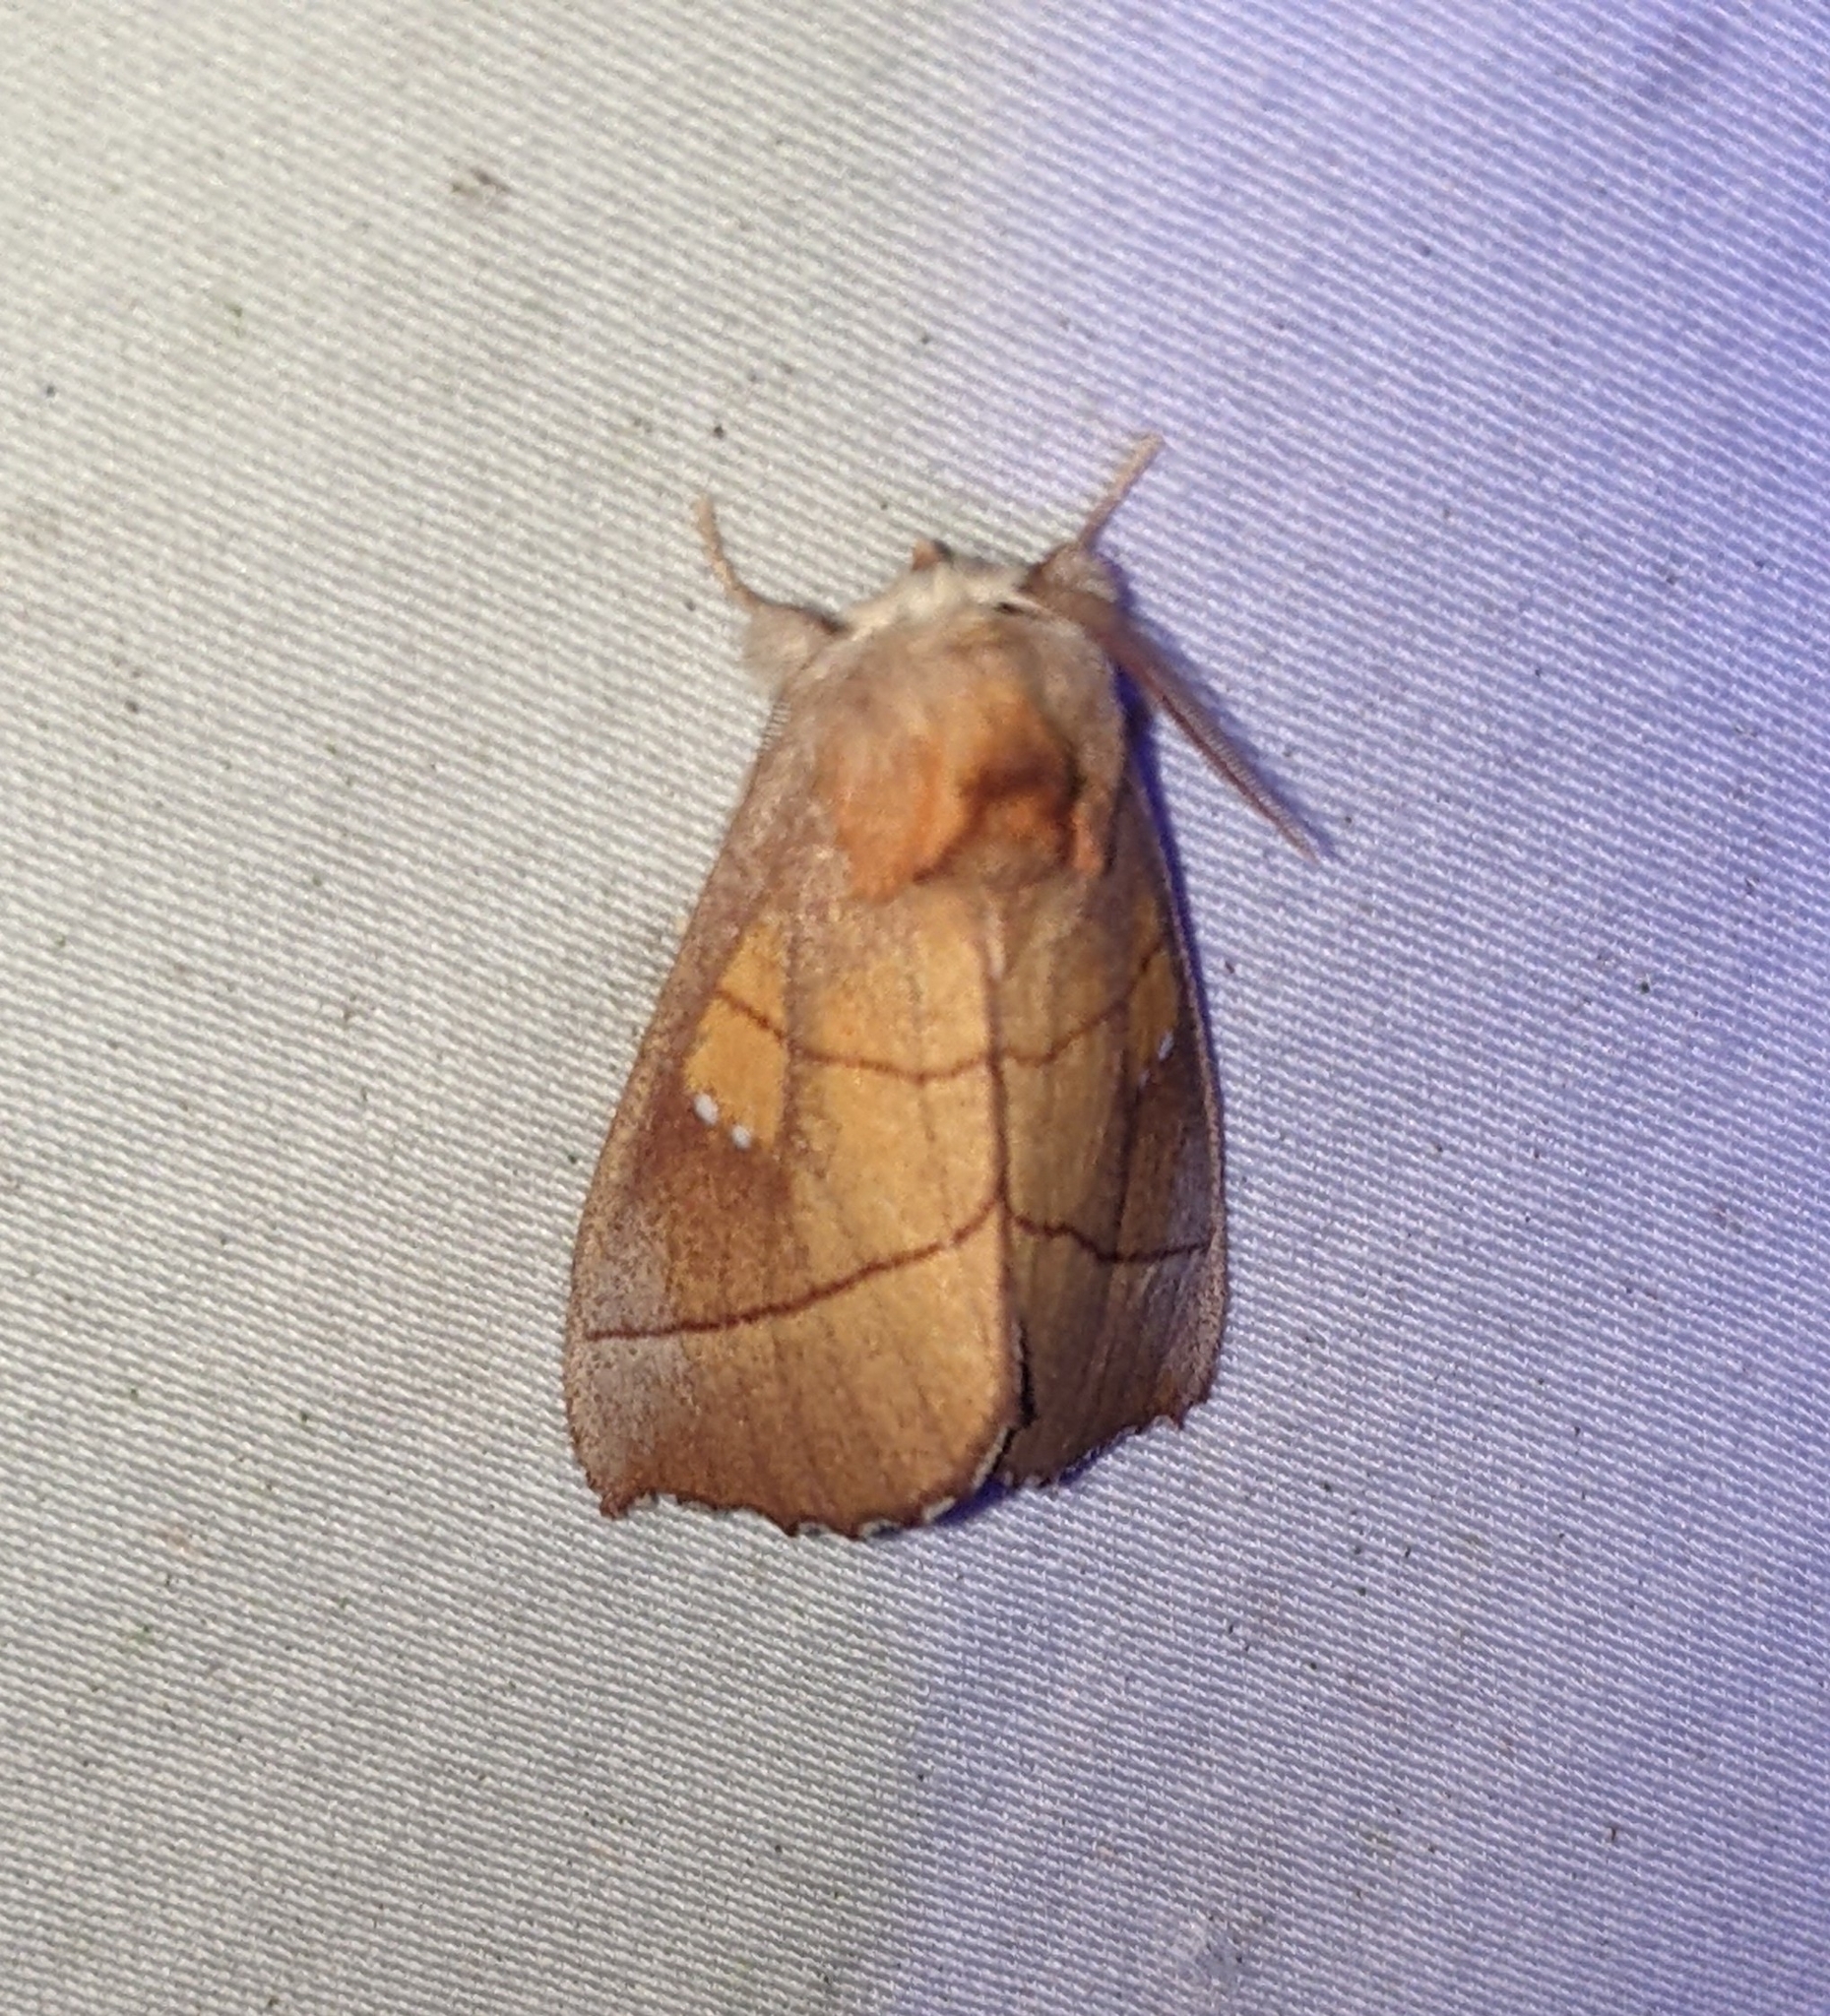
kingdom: Animalia
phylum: Arthropoda
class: Insecta
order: Lepidoptera
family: Notodontidae
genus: Nadata
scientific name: Nadata gibbosa
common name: White-dotted prominent
